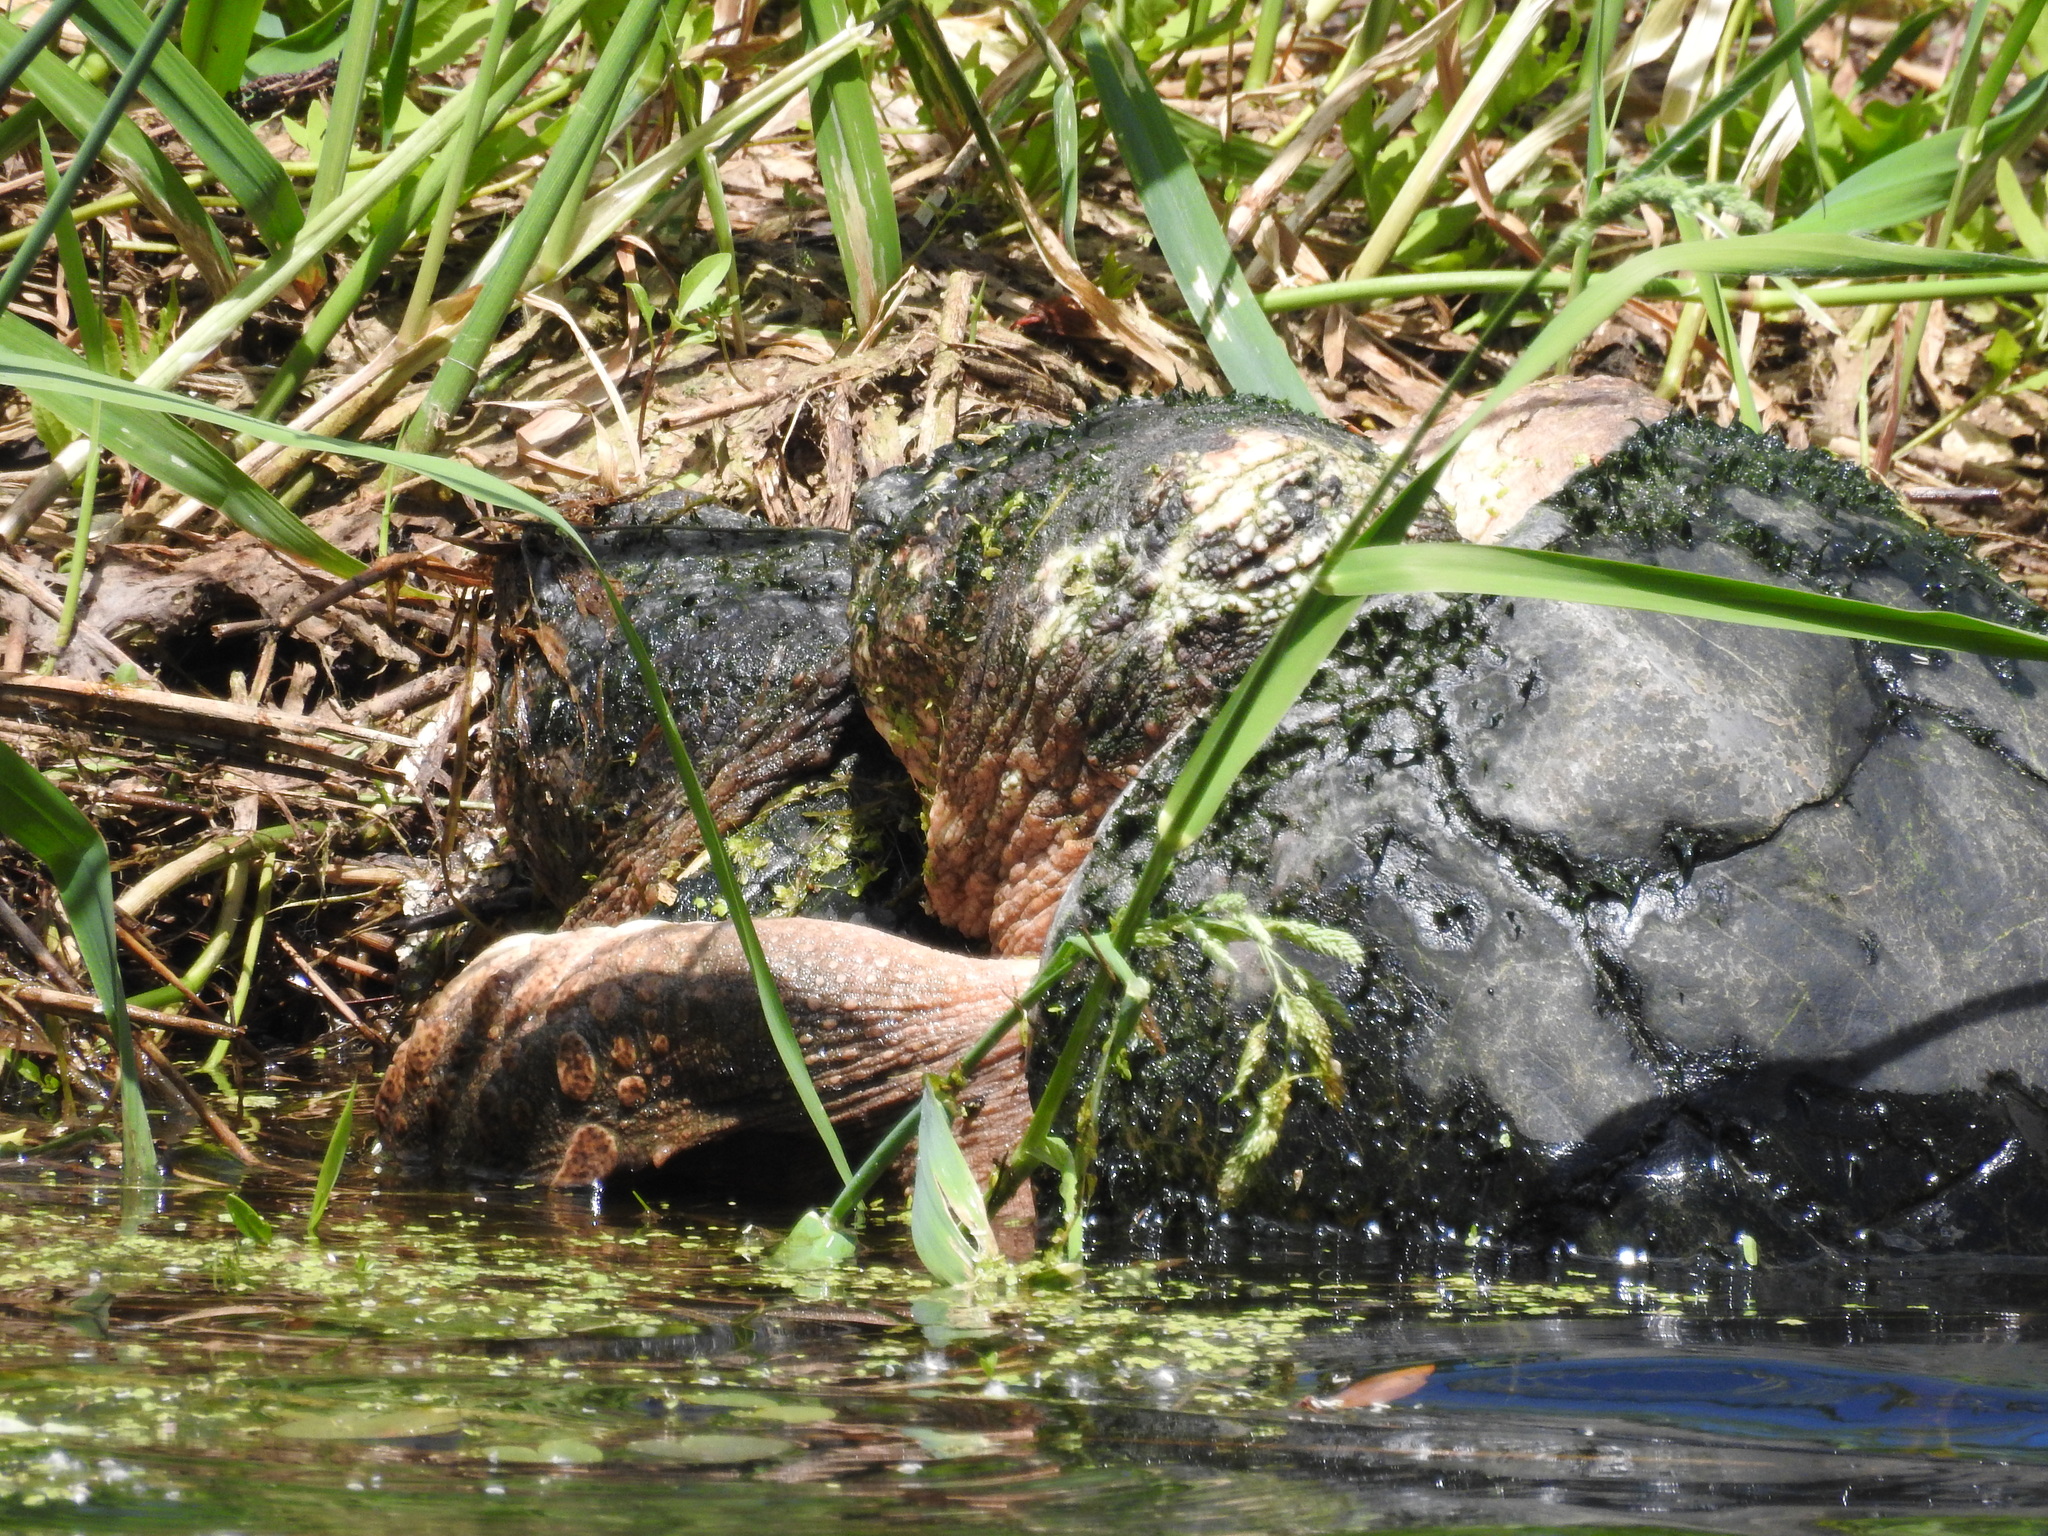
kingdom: Animalia
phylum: Chordata
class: Testudines
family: Chelydridae
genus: Chelydra
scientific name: Chelydra serpentina
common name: Common snapping turtle
